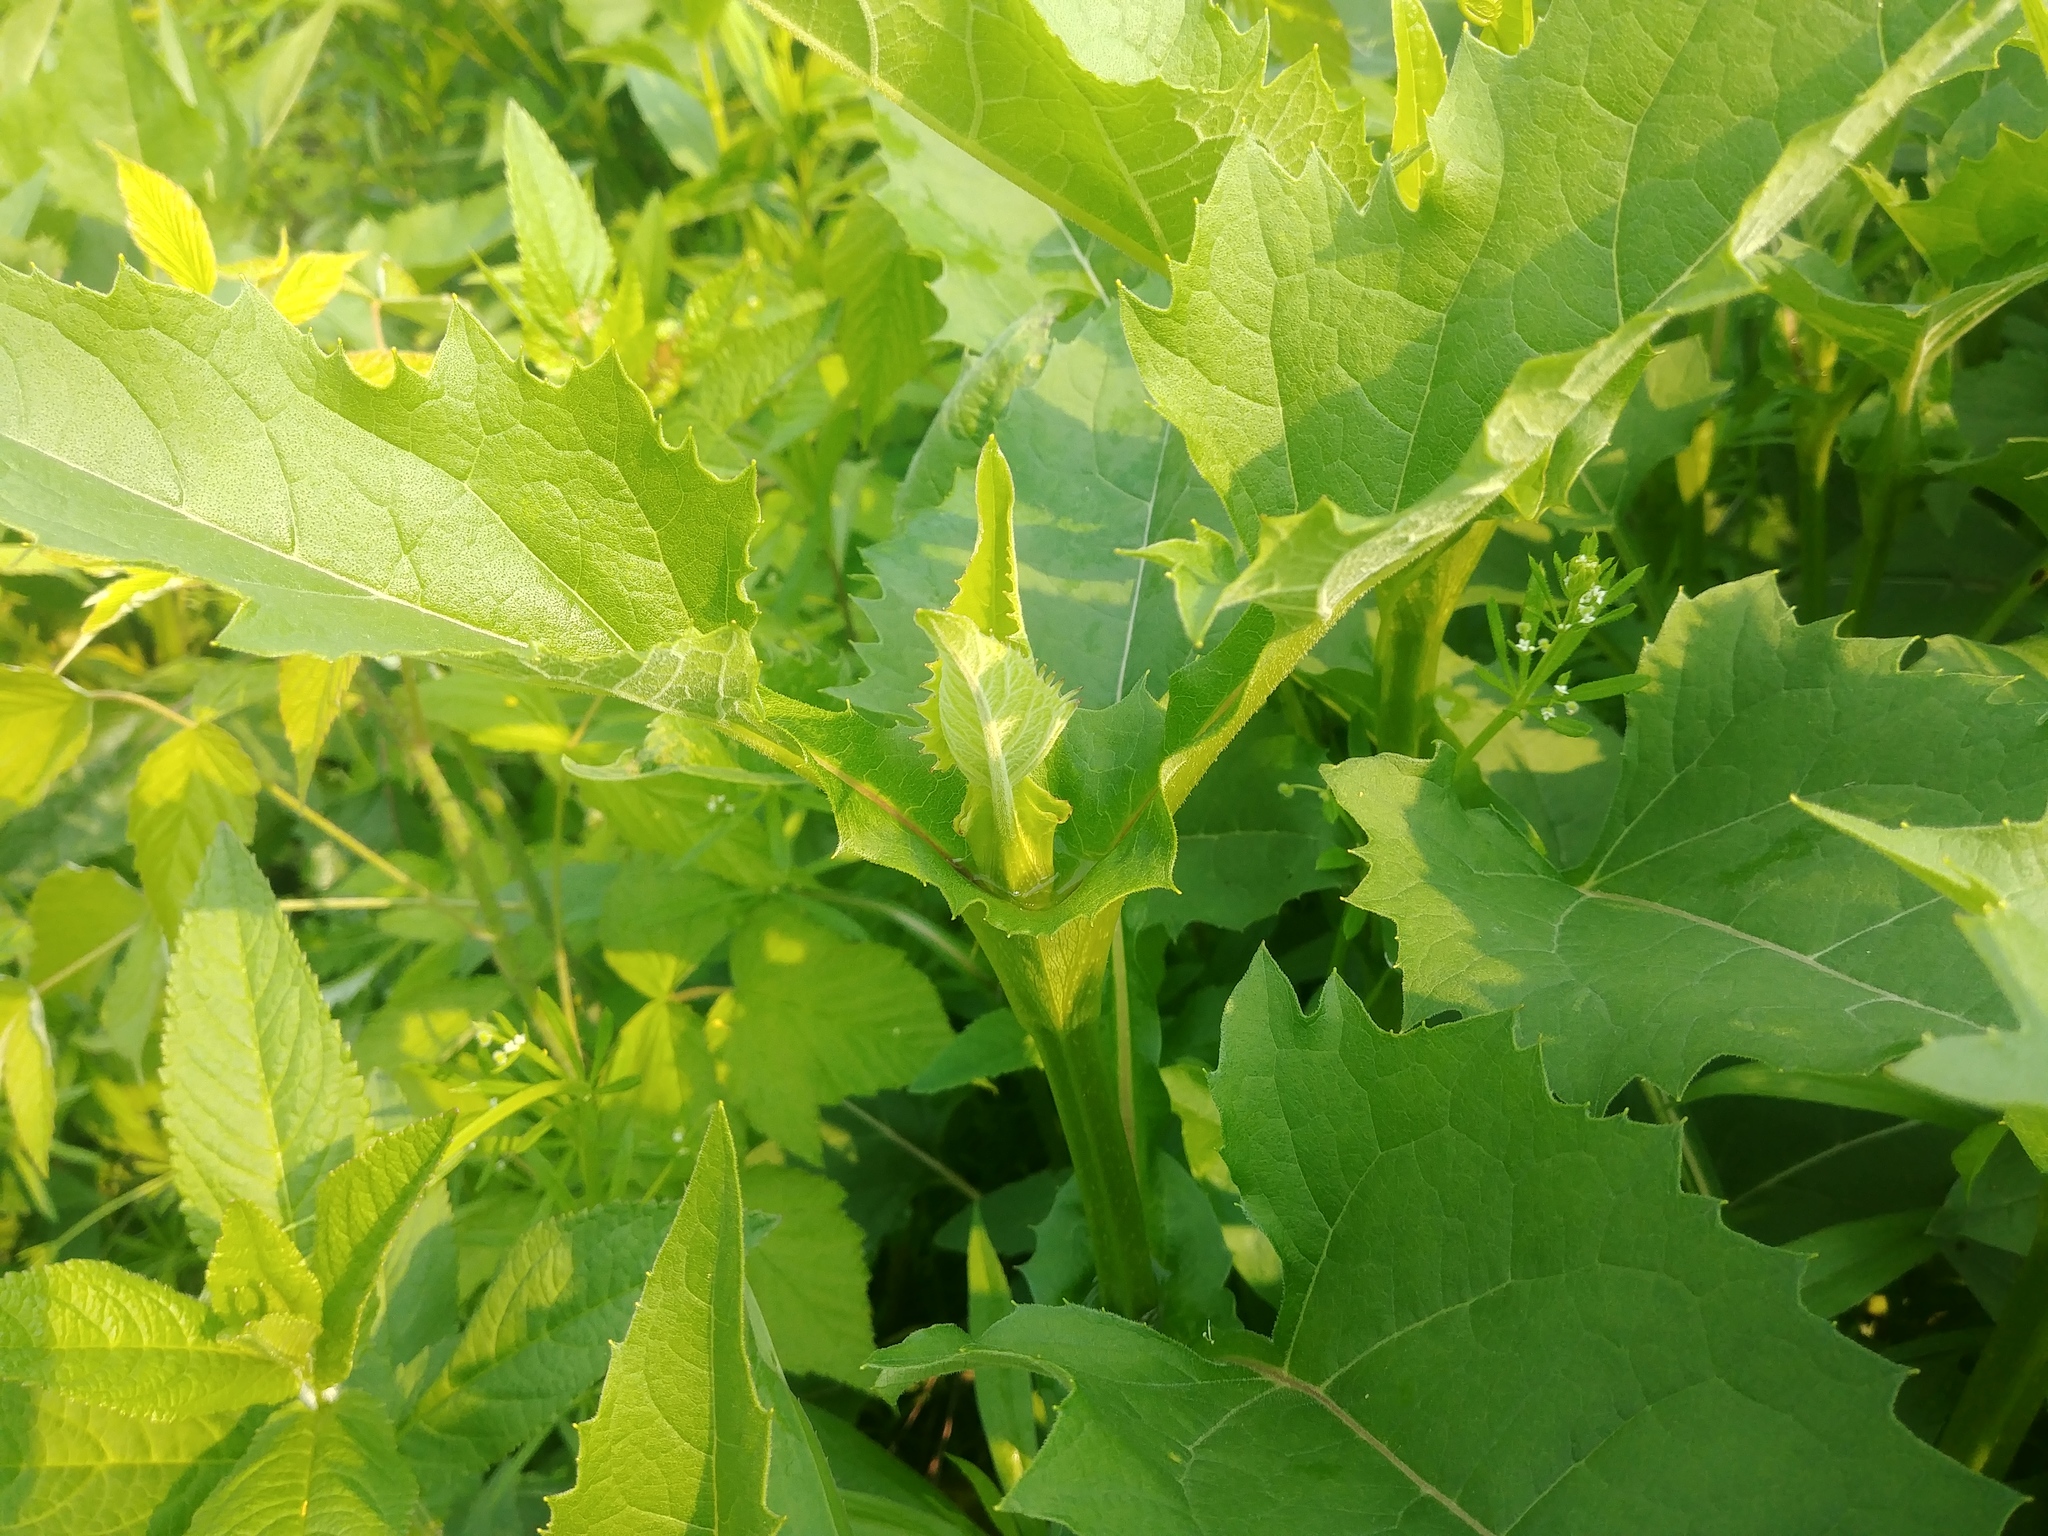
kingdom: Plantae
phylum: Tracheophyta
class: Magnoliopsida
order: Asterales
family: Asteraceae
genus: Silphium
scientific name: Silphium perfoliatum
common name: Cup-plant
